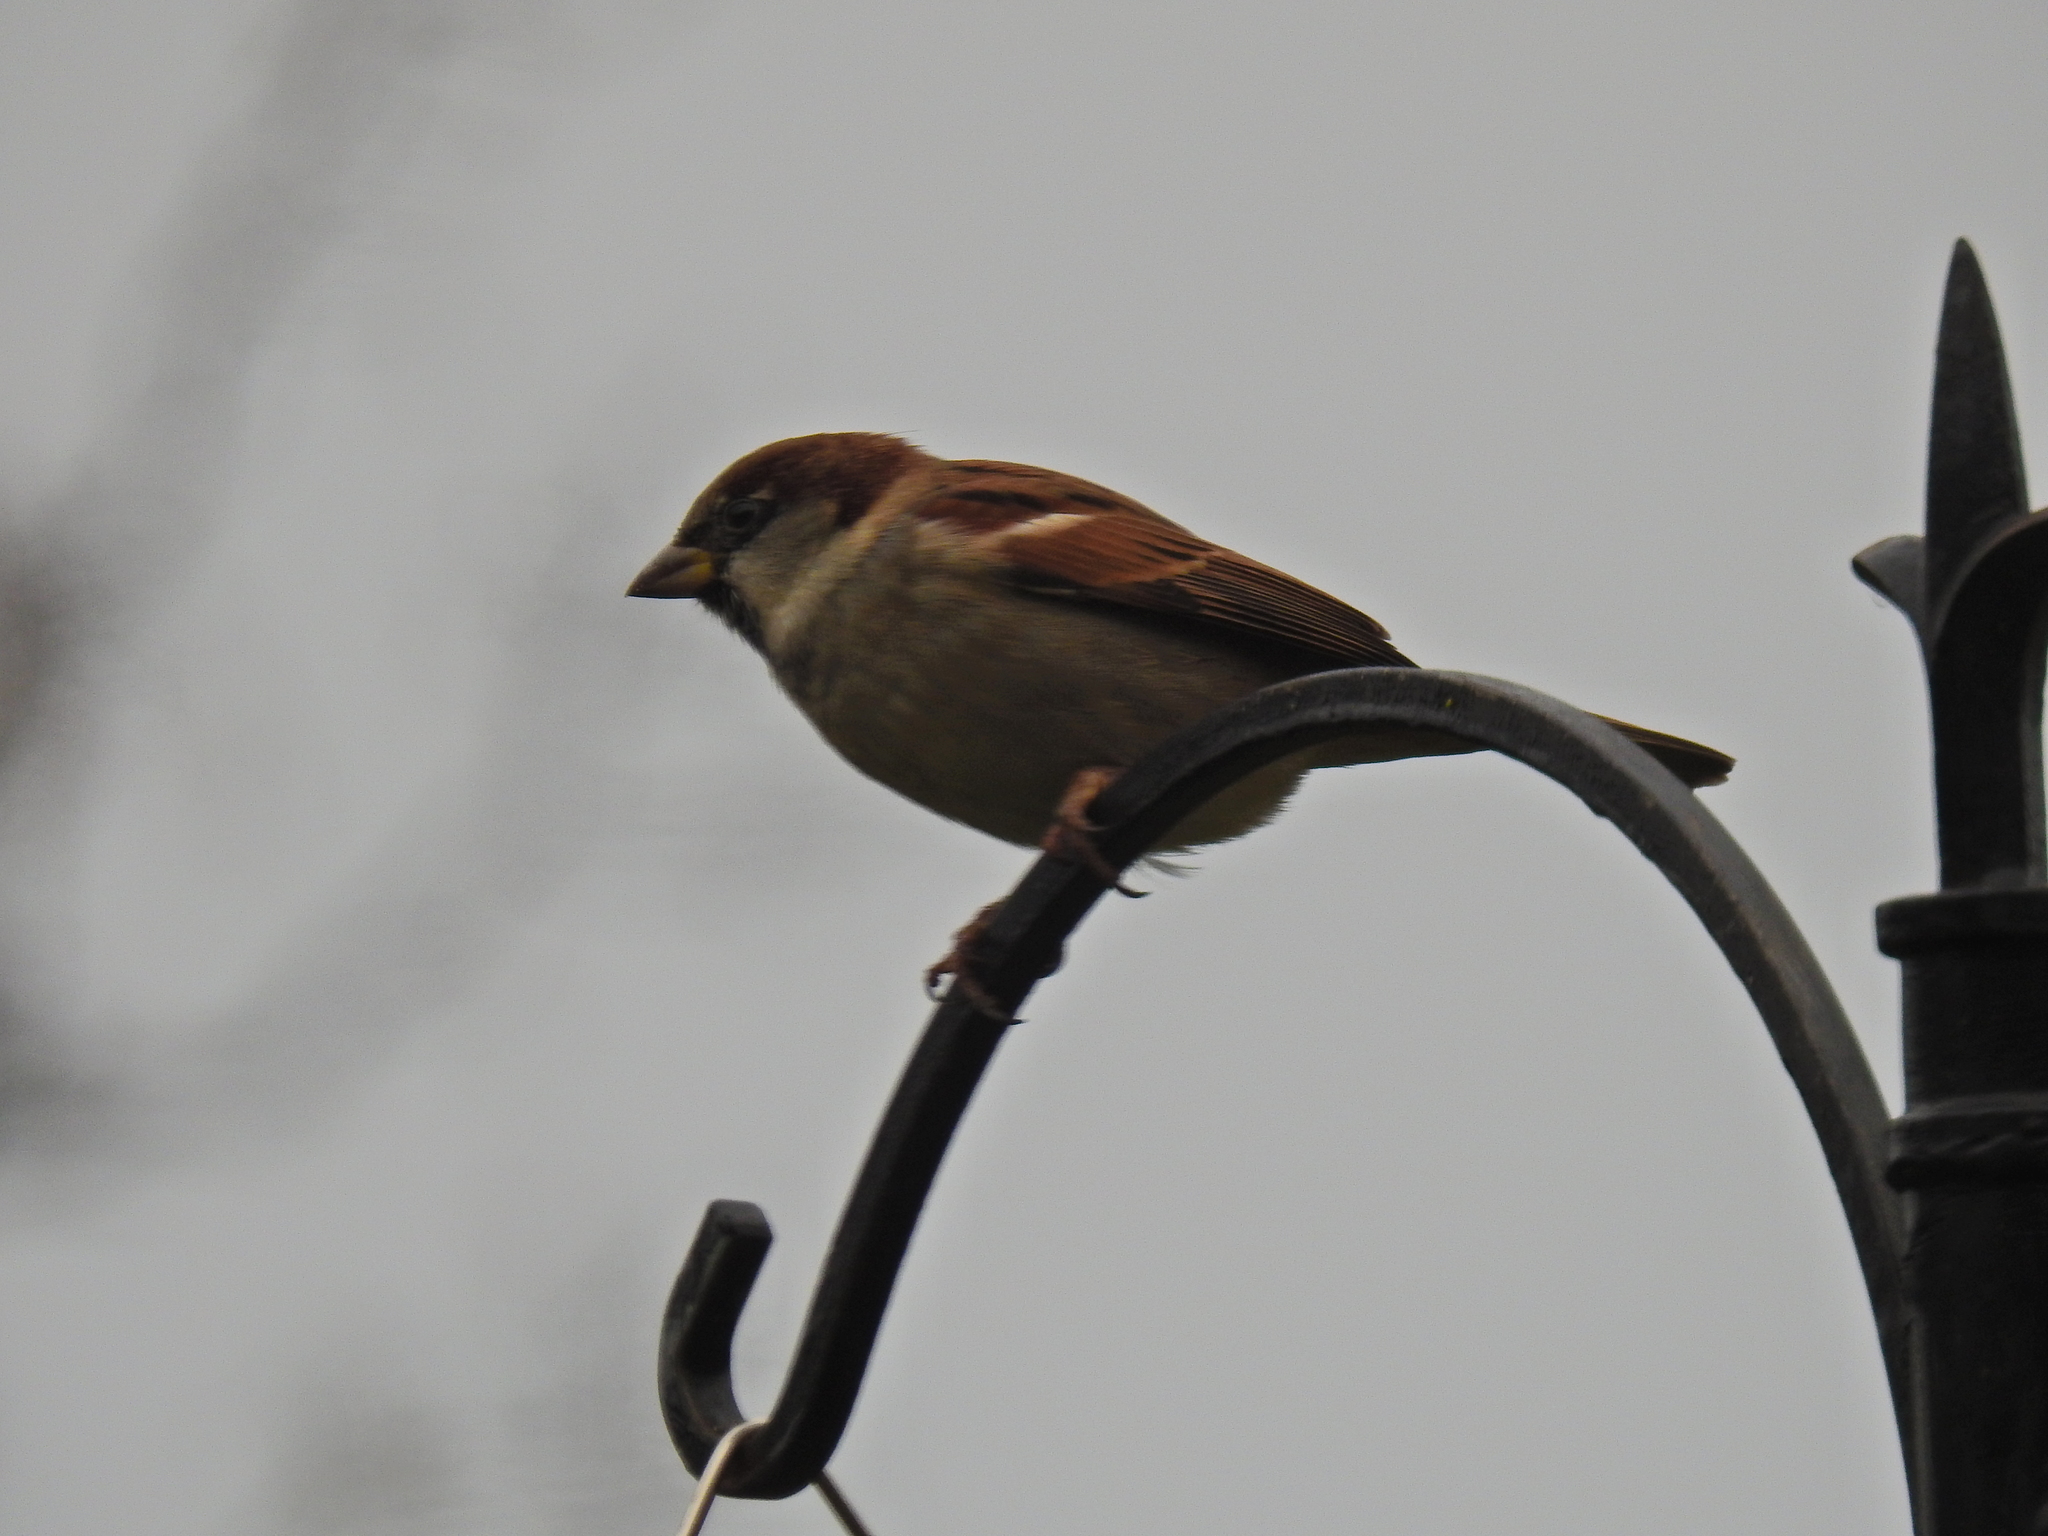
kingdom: Animalia
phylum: Chordata
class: Aves
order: Passeriformes
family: Passeridae
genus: Passer
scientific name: Passer domesticus
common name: House sparrow
